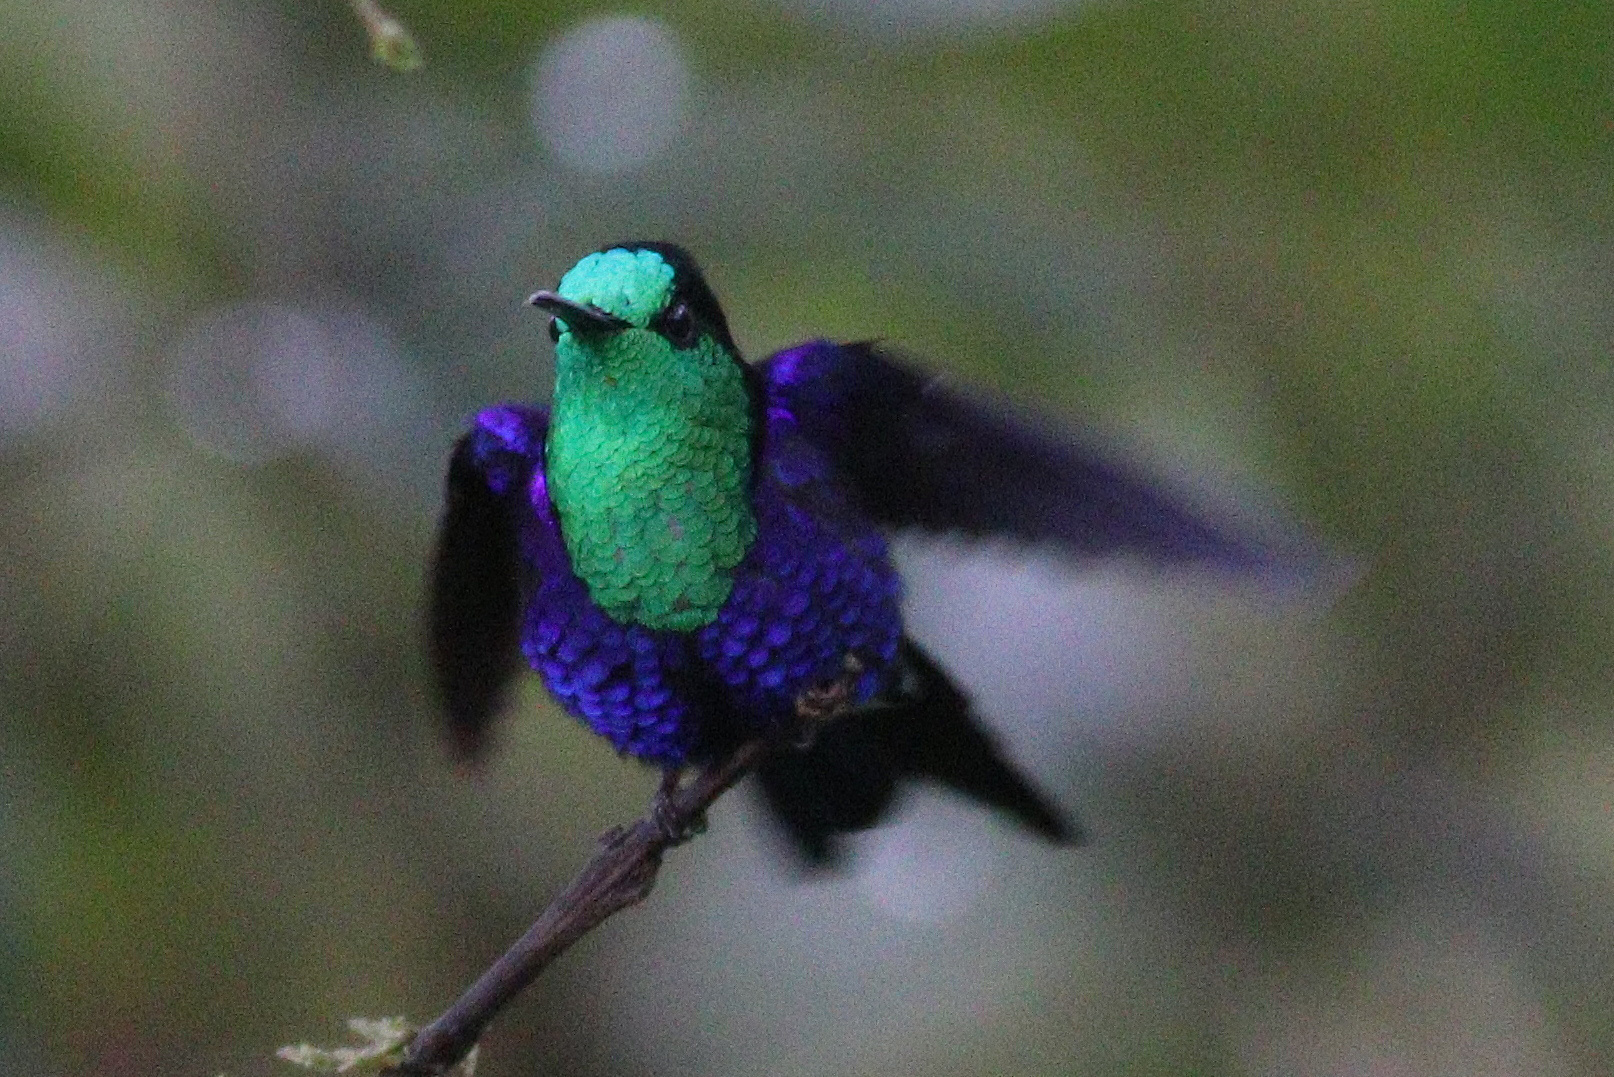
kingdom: Animalia
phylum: Chordata
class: Aves
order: Apodiformes
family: Trochilidae
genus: Thalurania
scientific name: Thalurania colombica
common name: Crowned woodnymph
